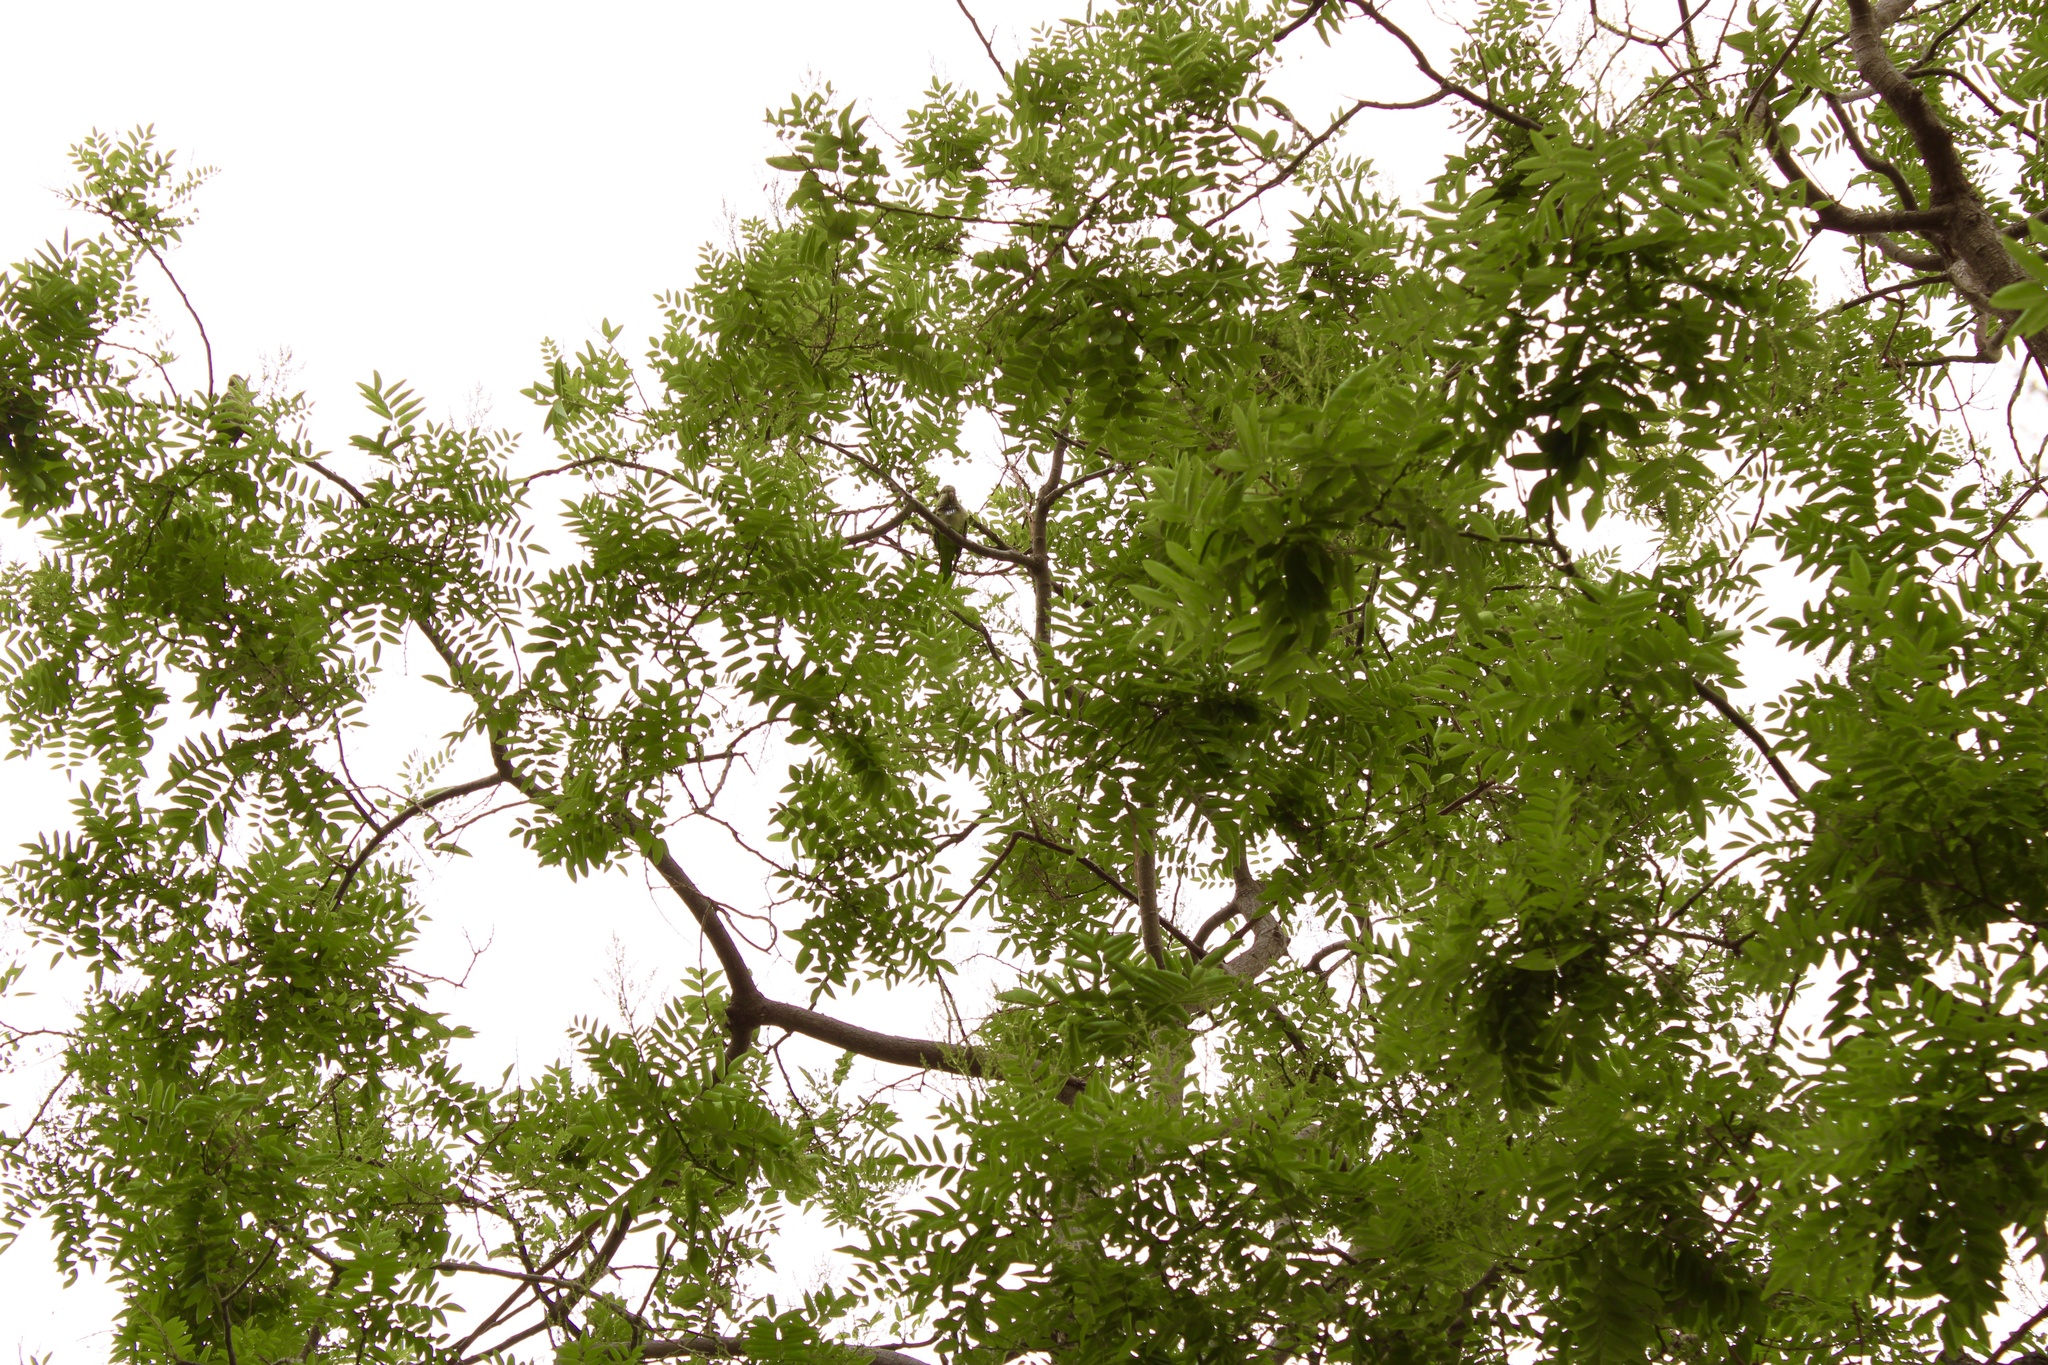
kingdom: Animalia
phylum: Chordata
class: Aves
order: Psittaciformes
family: Psittacidae
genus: Myiopsitta
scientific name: Myiopsitta monachus
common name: Monk parakeet
